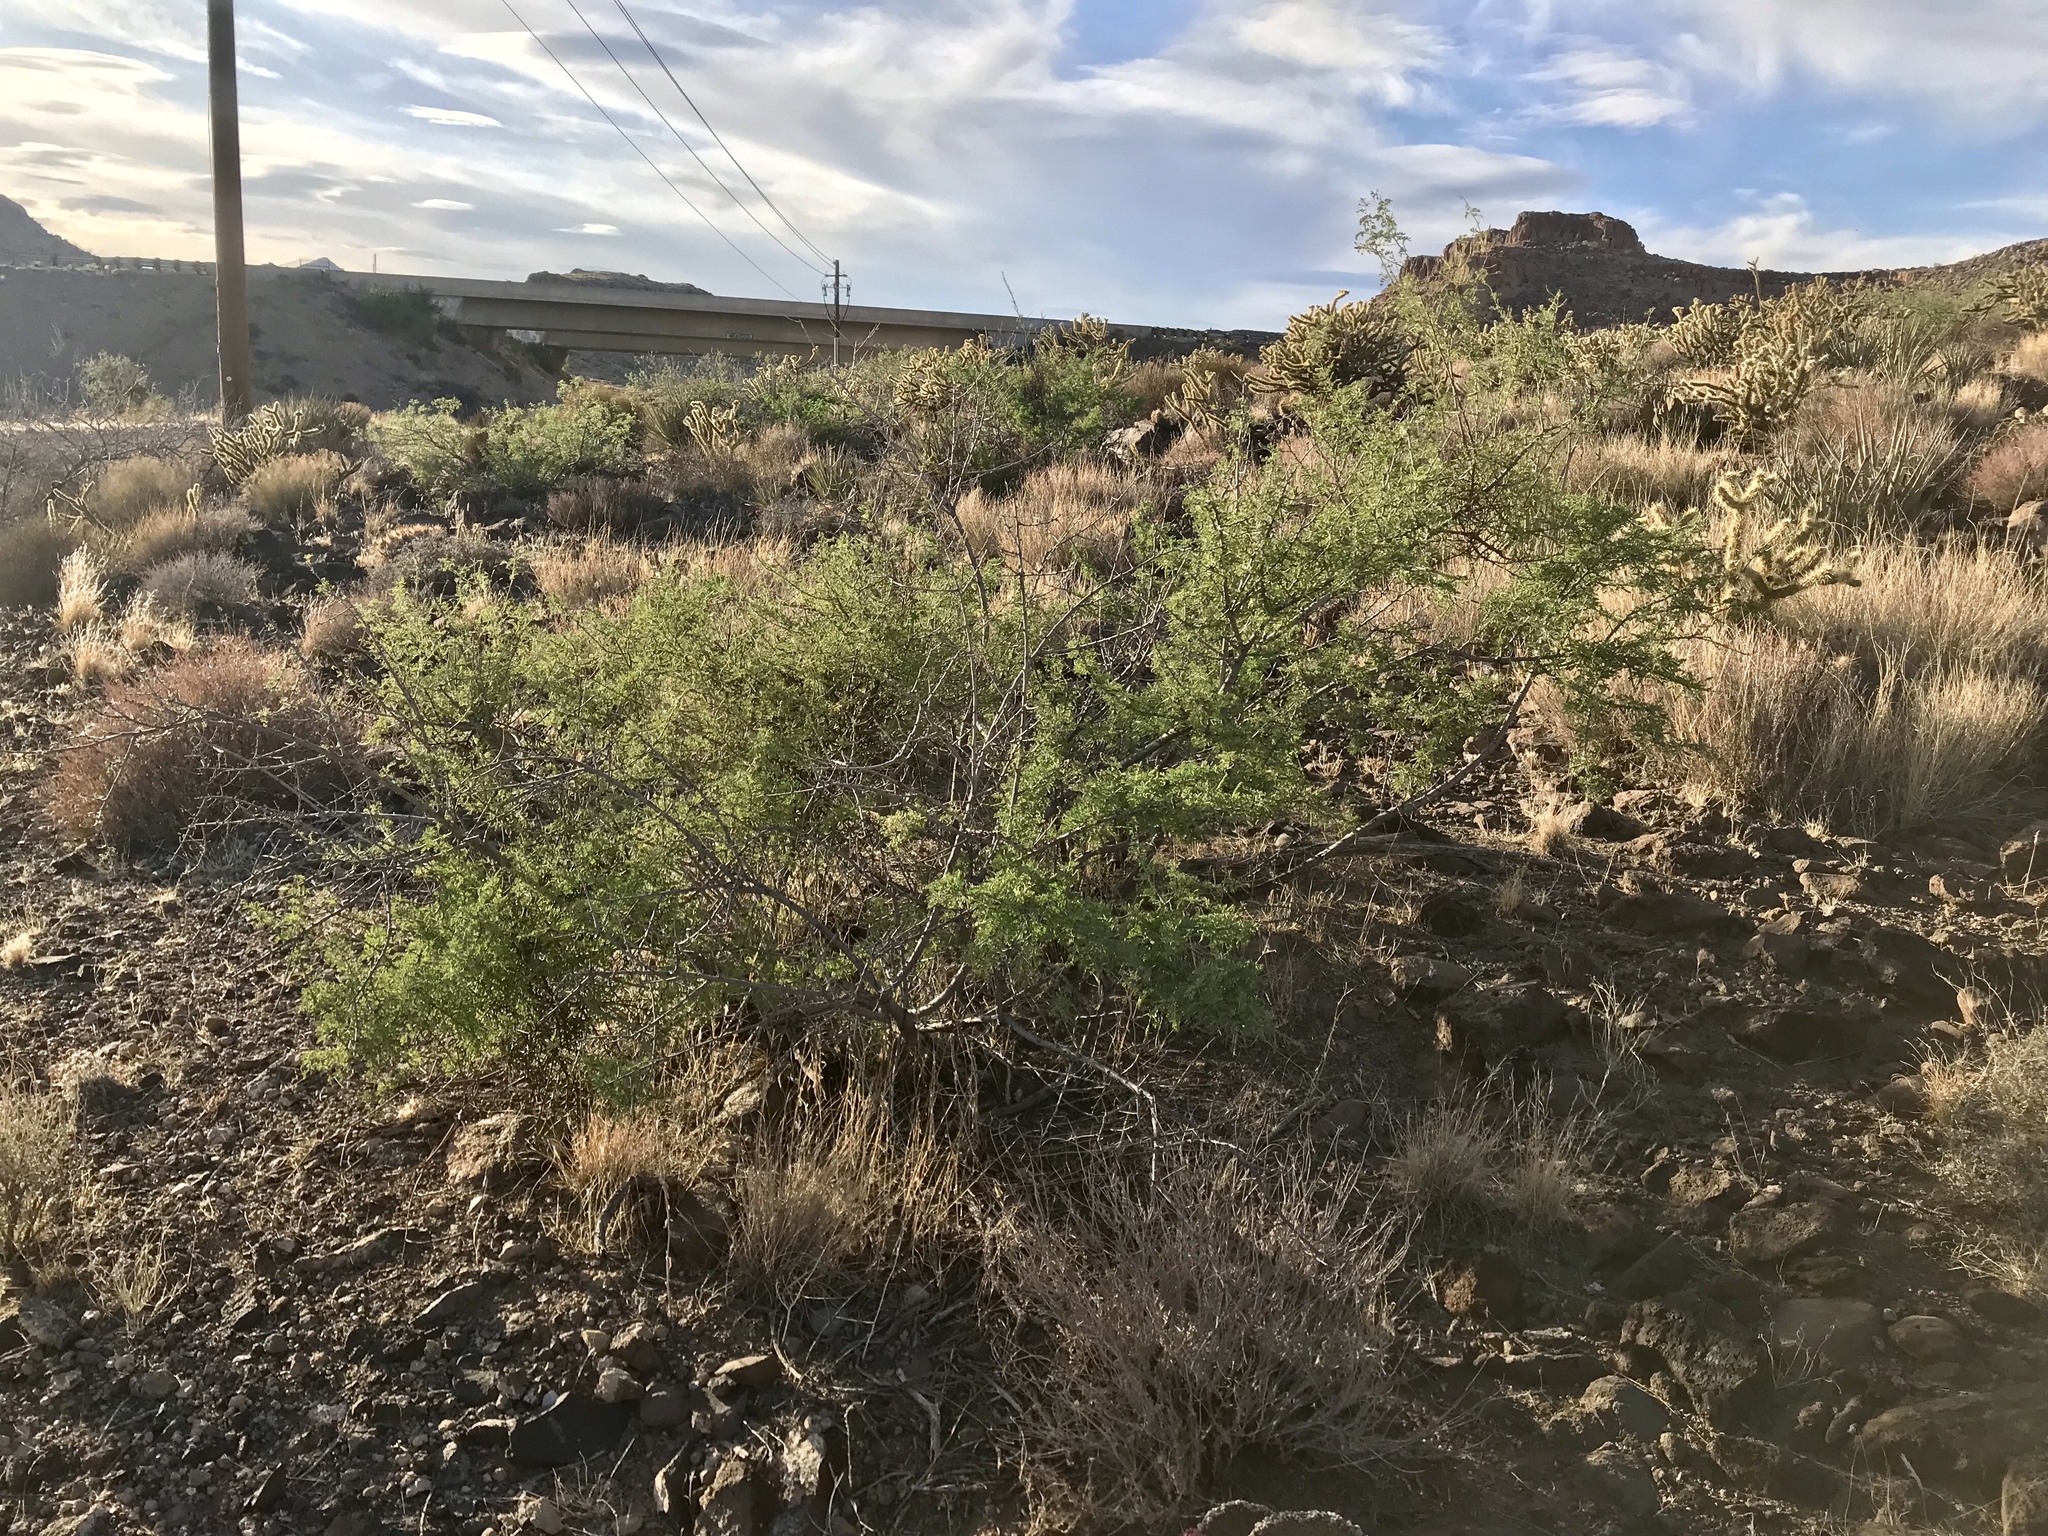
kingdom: Plantae
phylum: Tracheophyta
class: Magnoliopsida
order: Fabales
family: Fabaceae
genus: Senegalia
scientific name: Senegalia greggii
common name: Texas-mimosa
